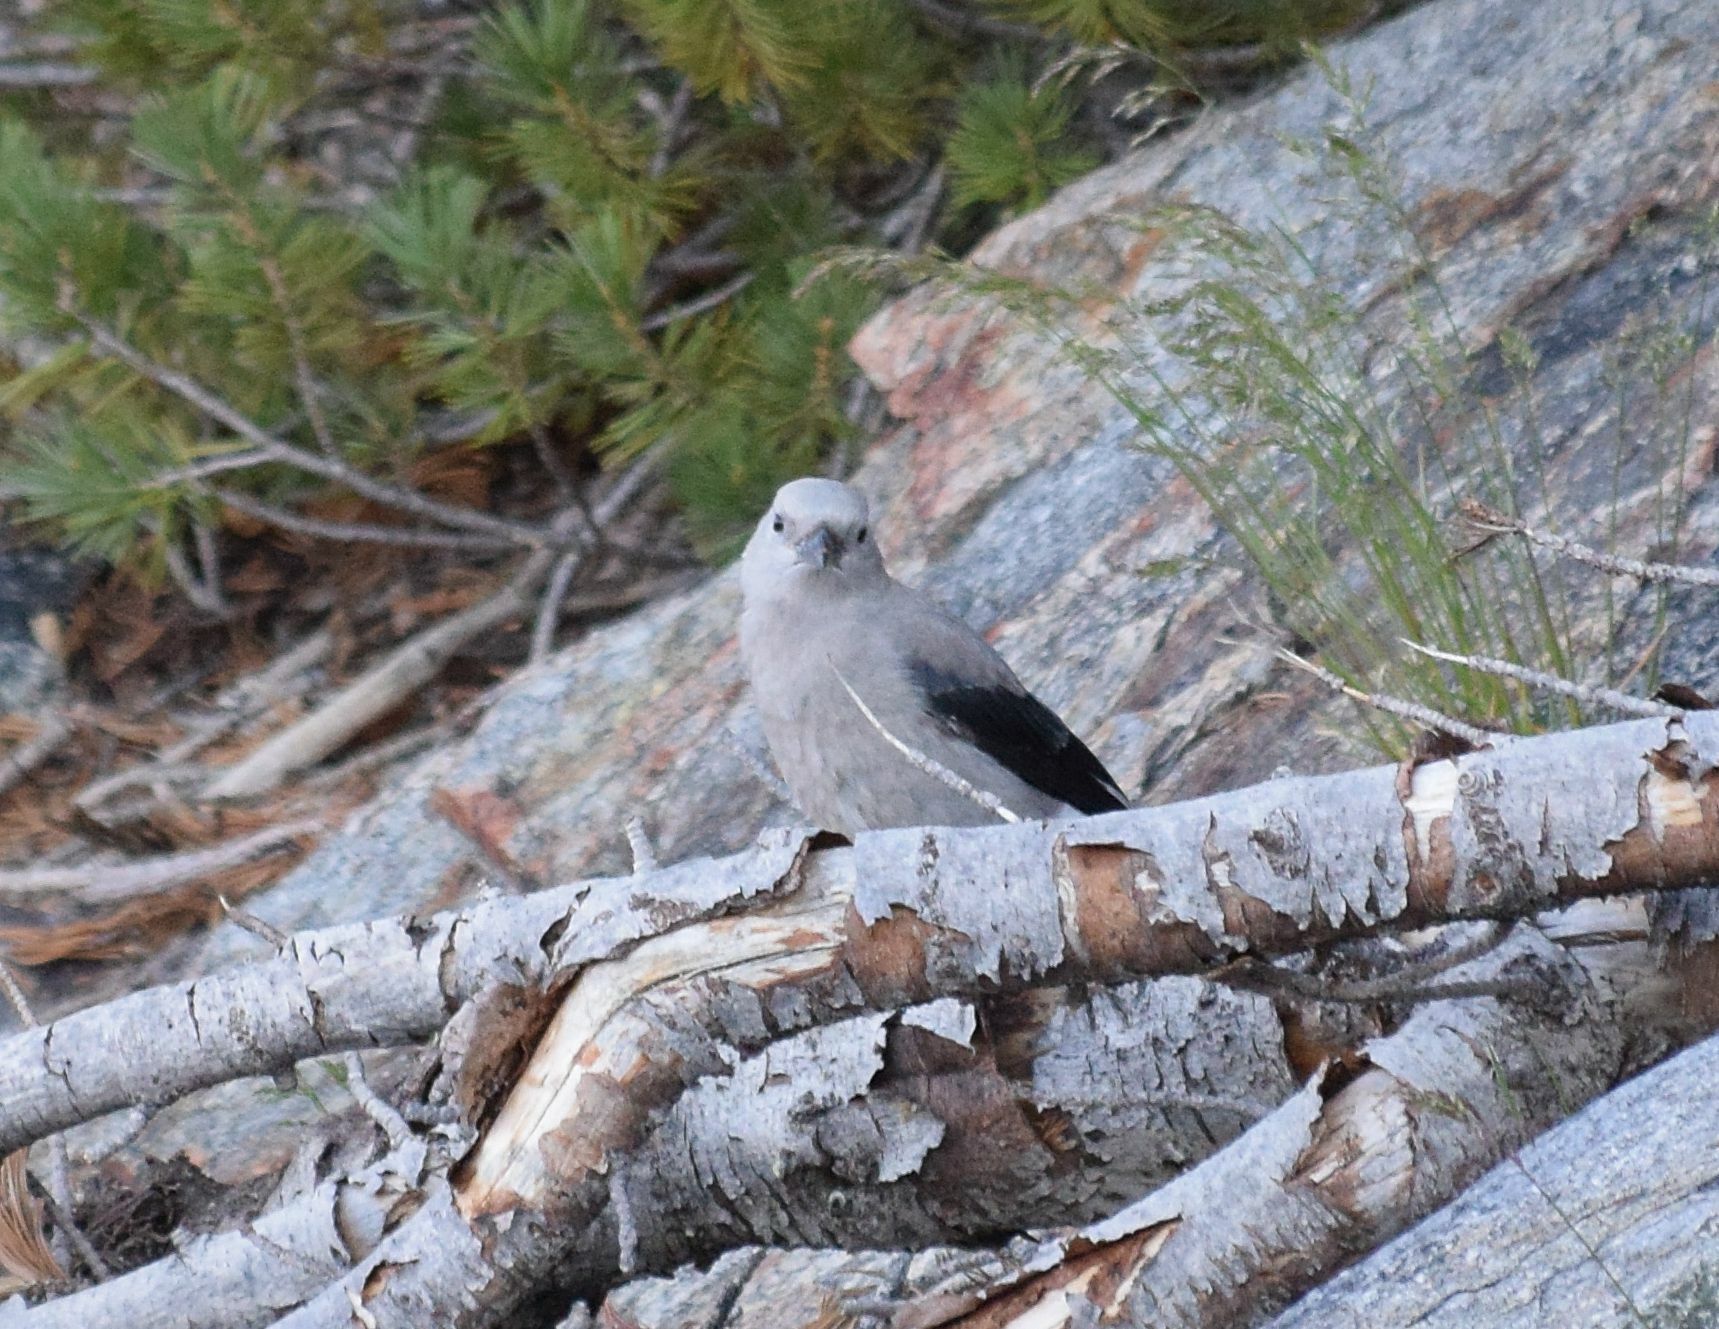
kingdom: Animalia
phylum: Chordata
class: Aves
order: Passeriformes
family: Corvidae
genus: Nucifraga
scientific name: Nucifraga columbiana
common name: Clark's nutcracker
